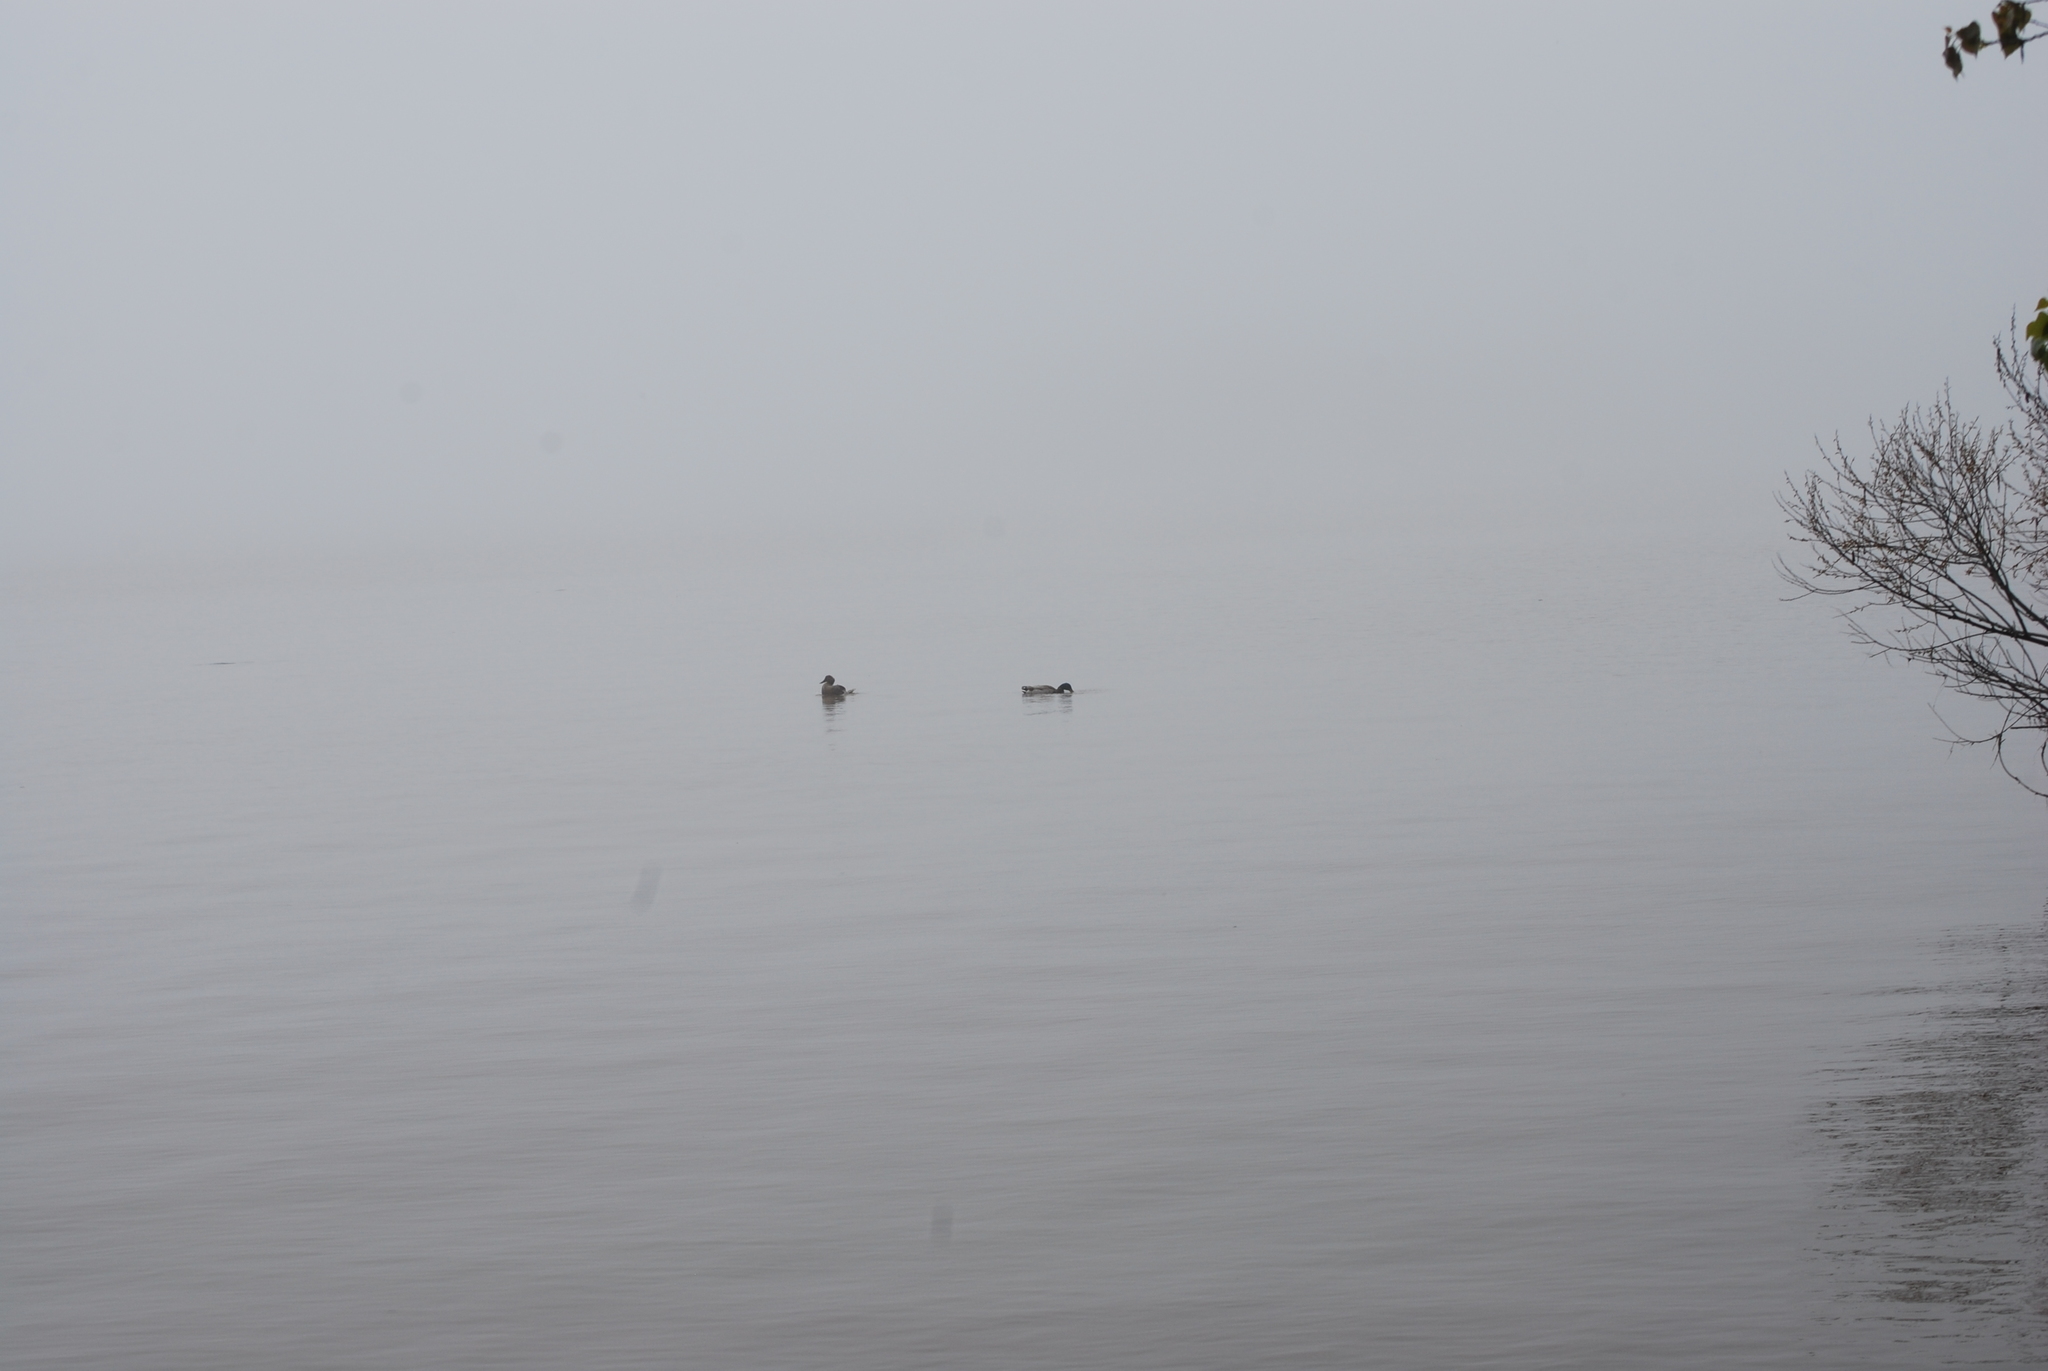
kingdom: Animalia
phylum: Chordata
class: Aves
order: Anseriformes
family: Anatidae
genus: Anas
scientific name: Anas platyrhynchos
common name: Mallard
